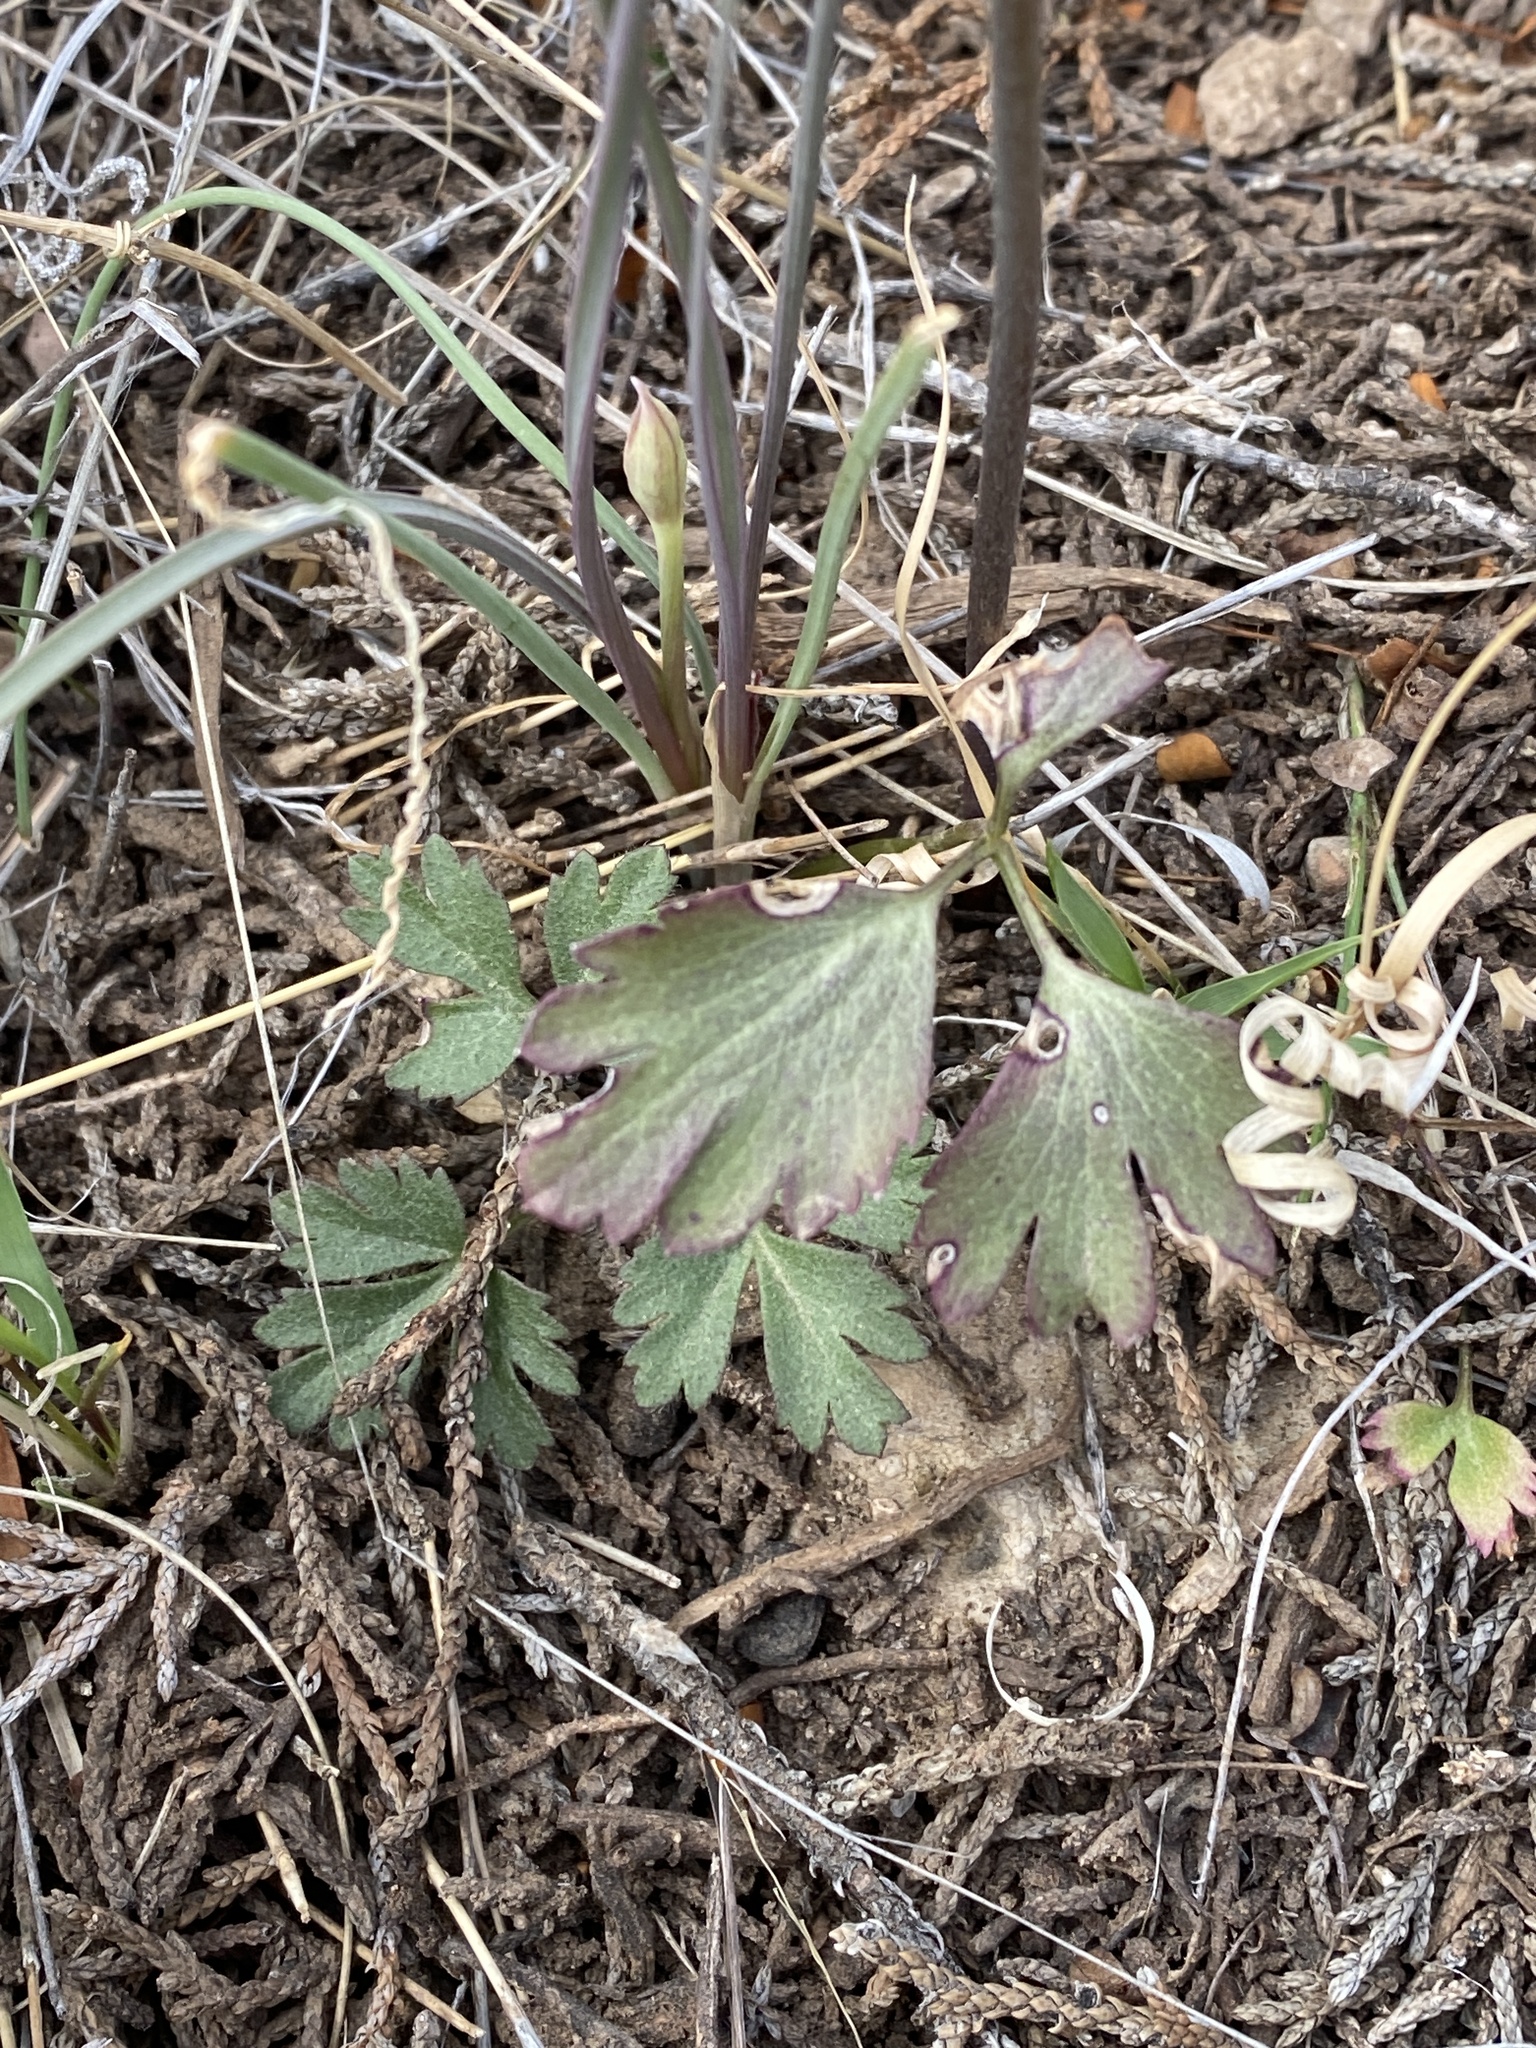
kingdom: Plantae
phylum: Tracheophyta
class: Magnoliopsida
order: Ranunculales
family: Ranunculaceae
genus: Anemone
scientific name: Anemone tuberosa
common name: Desert anemone
